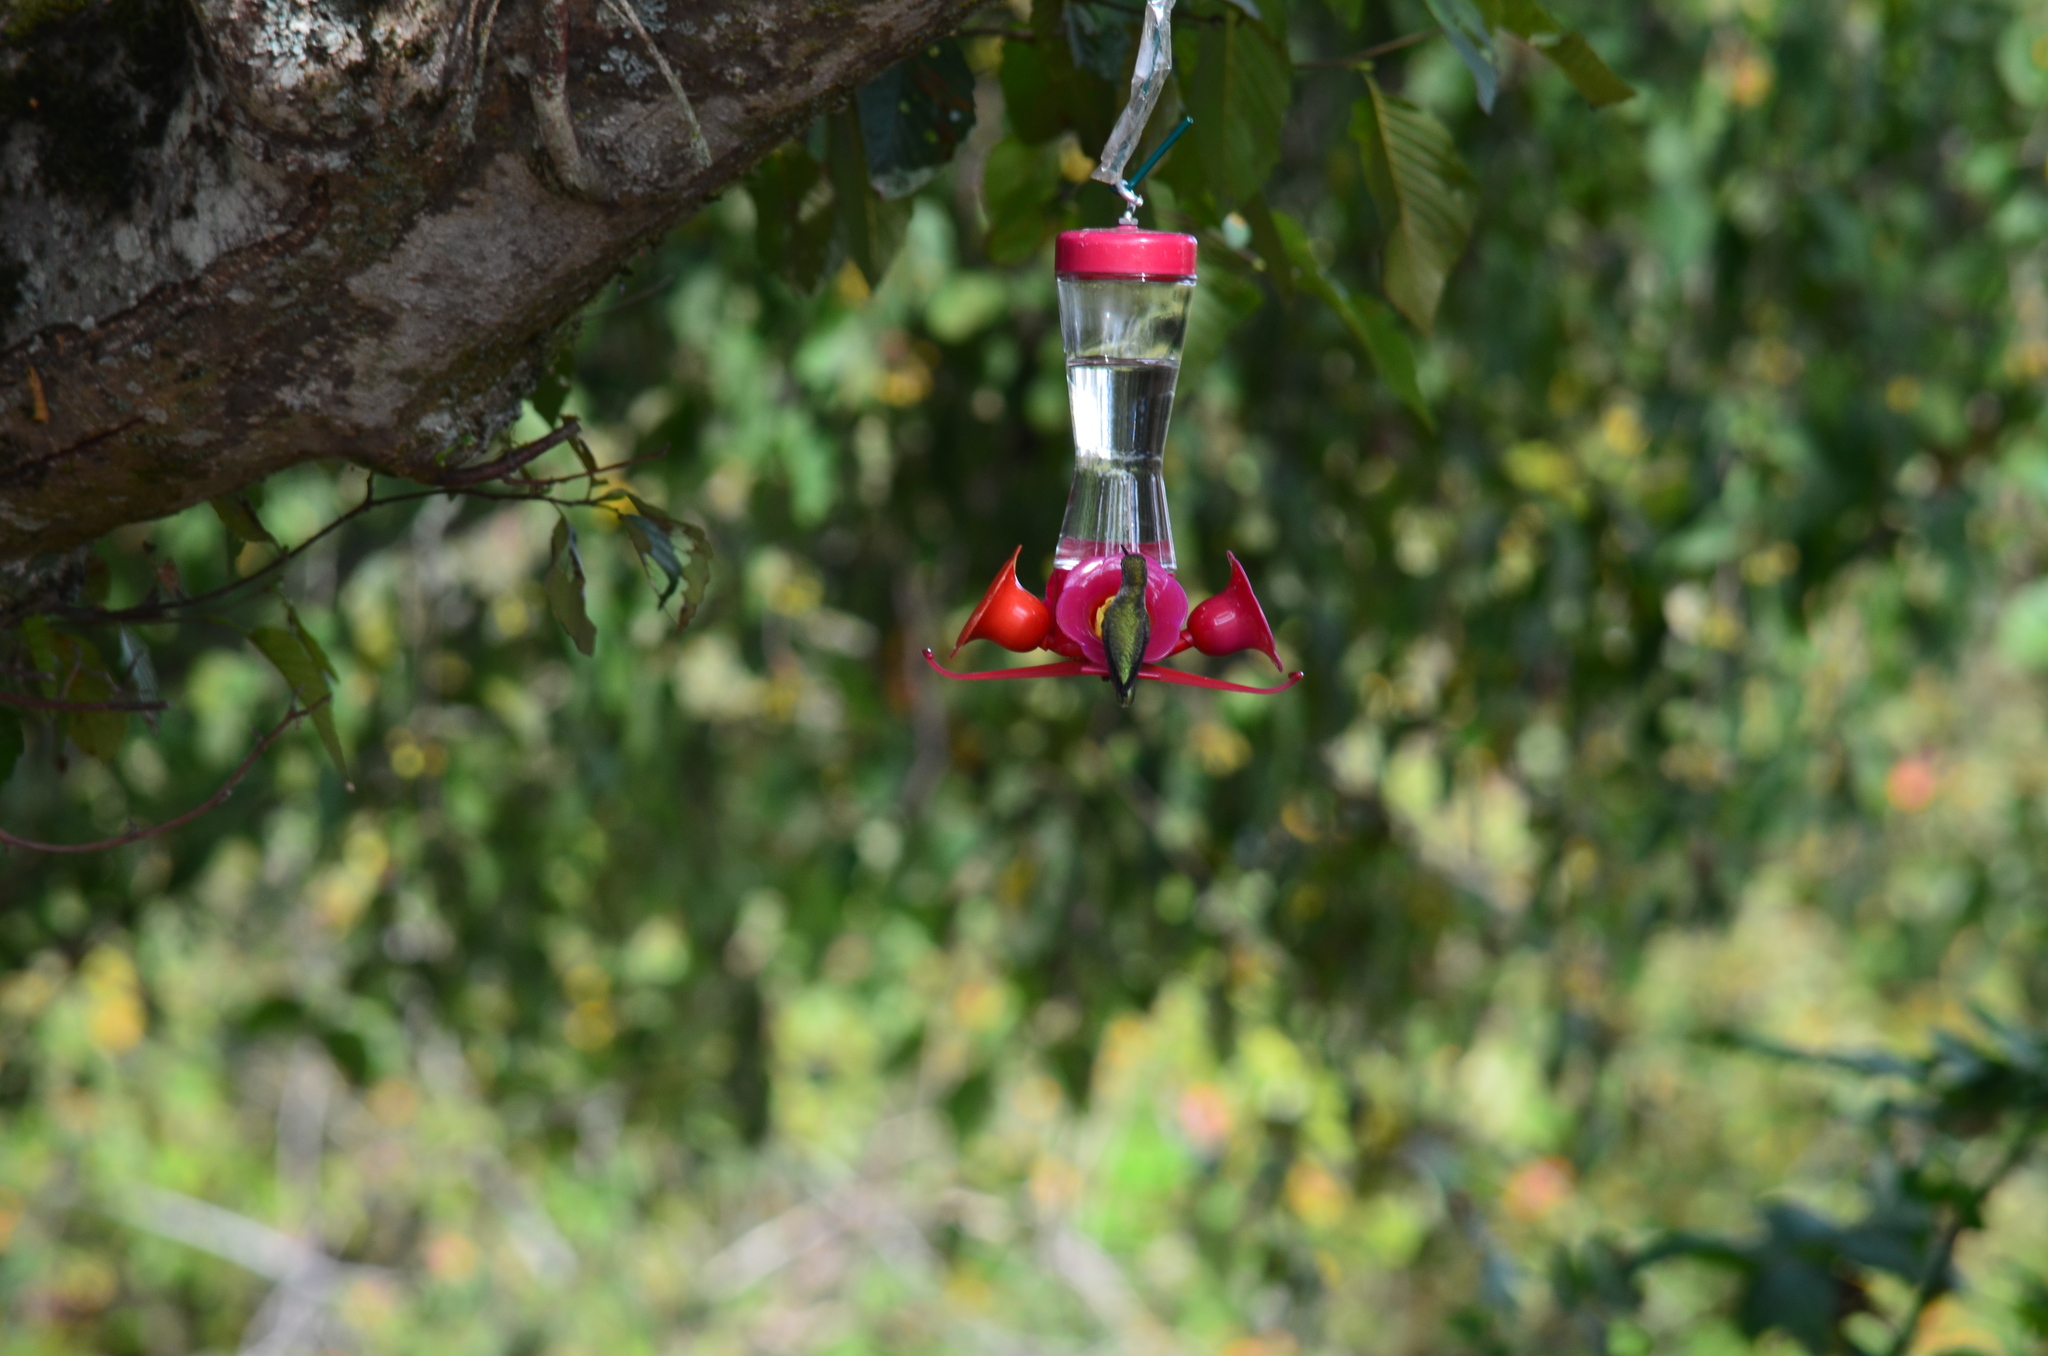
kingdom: Animalia
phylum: Chordata
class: Aves
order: Apodiformes
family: Trochilidae
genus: Calypte
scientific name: Calypte anna
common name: Anna's hummingbird
